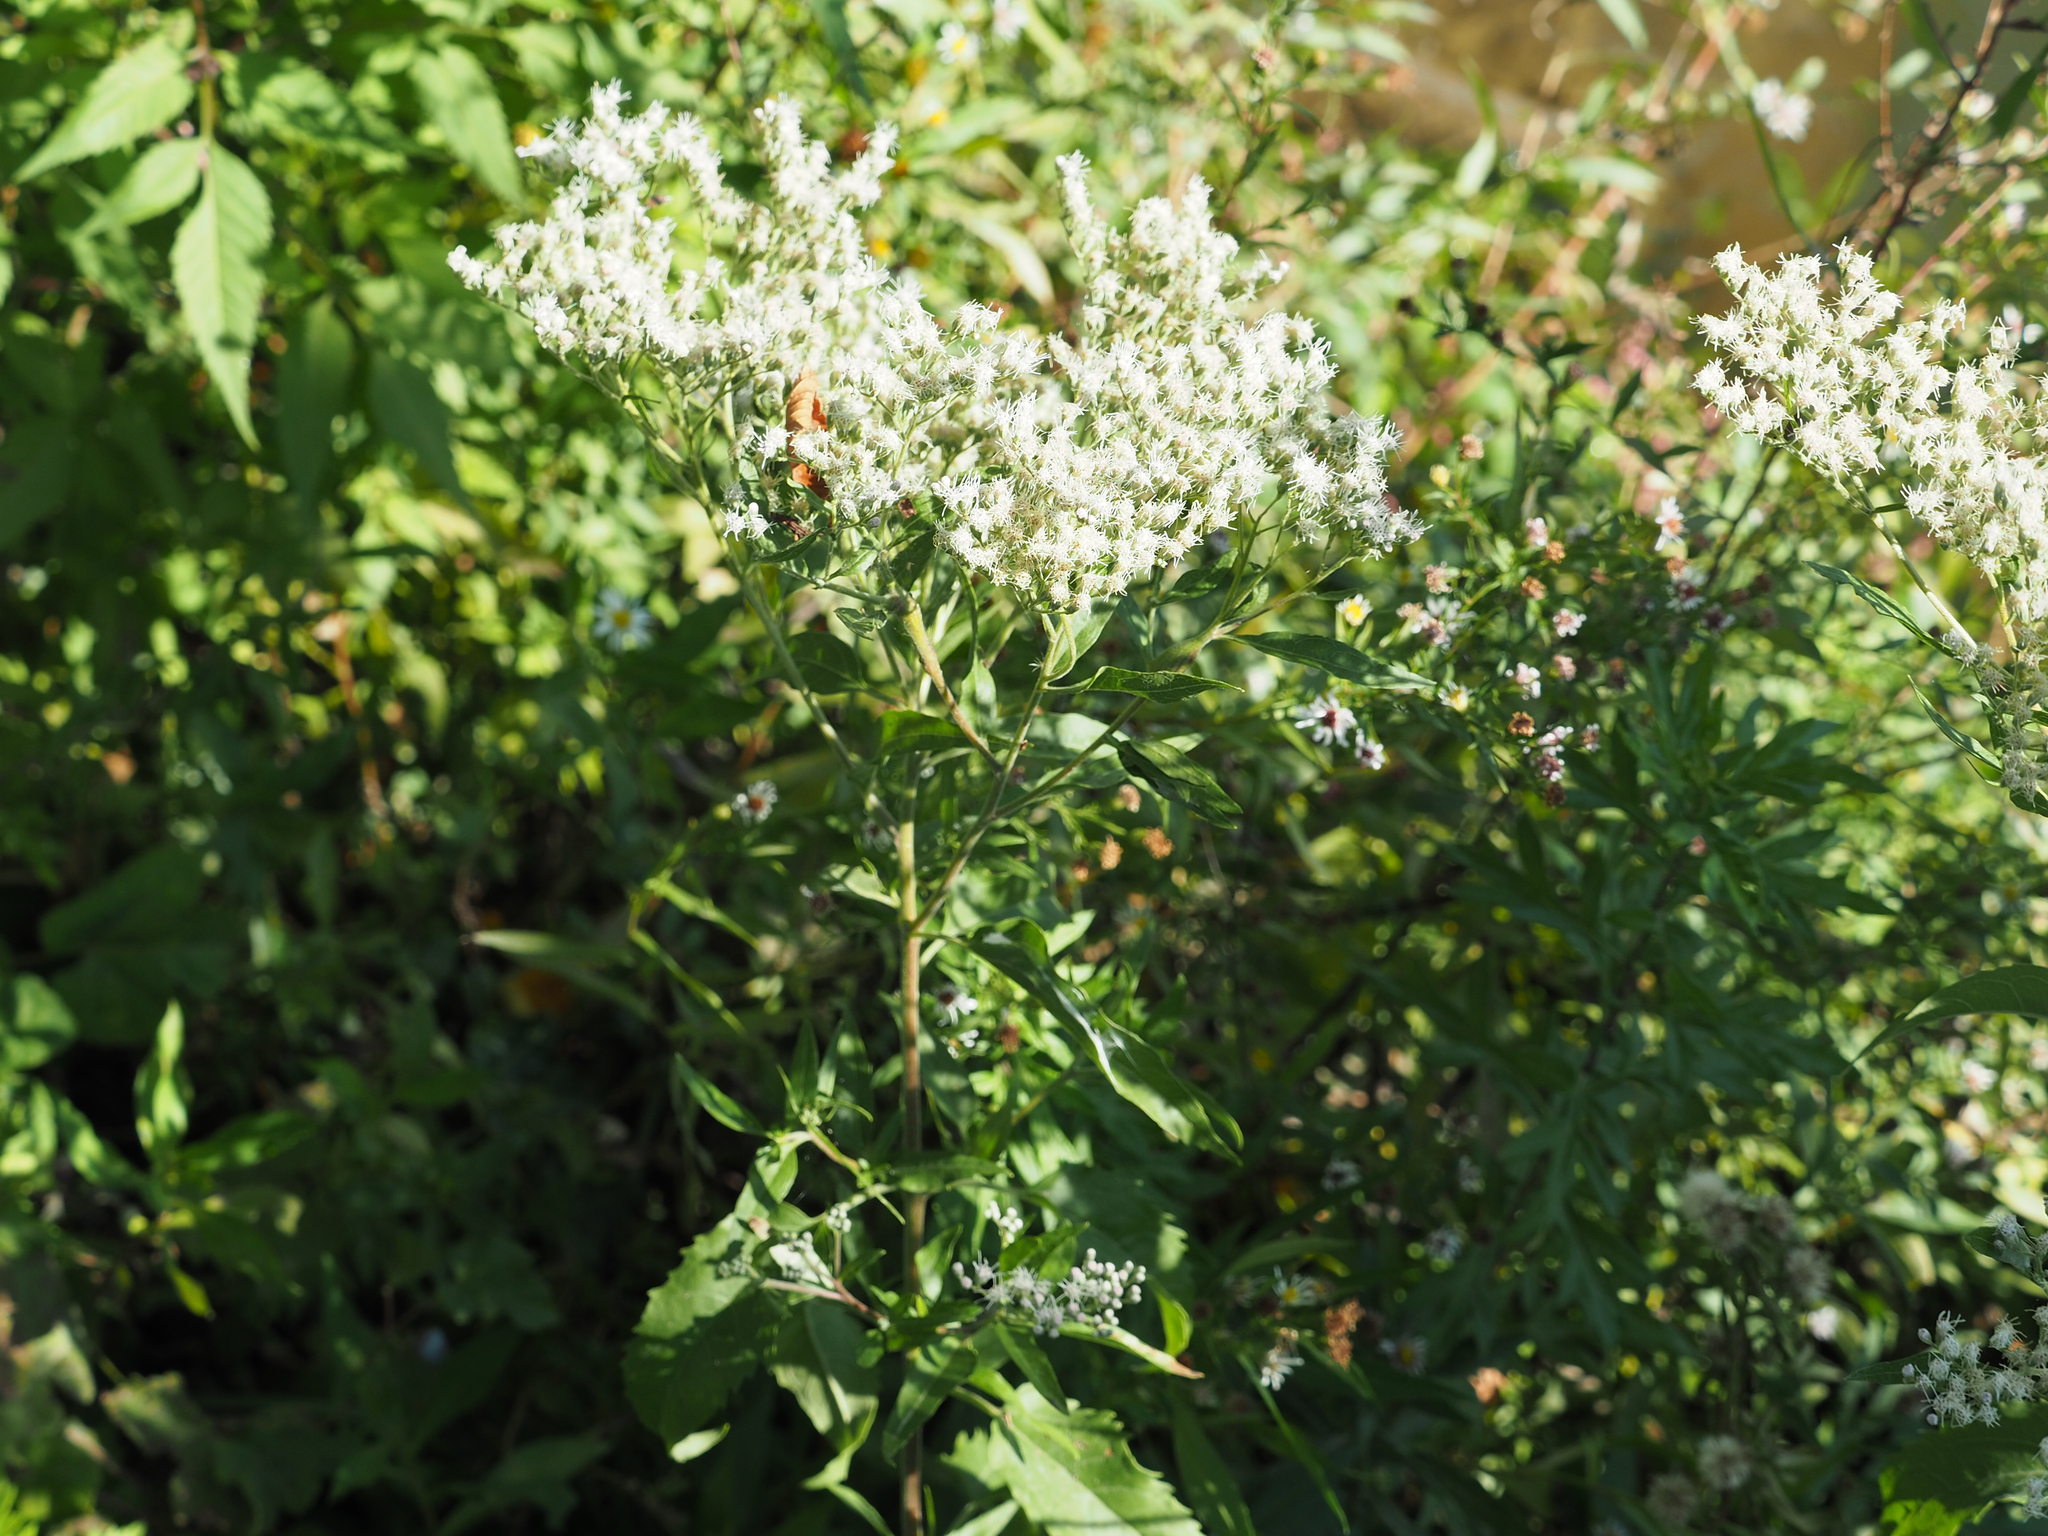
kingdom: Plantae
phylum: Tracheophyta
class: Magnoliopsida
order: Asterales
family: Asteraceae
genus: Eupatorium
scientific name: Eupatorium serotinum
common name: Late boneset
